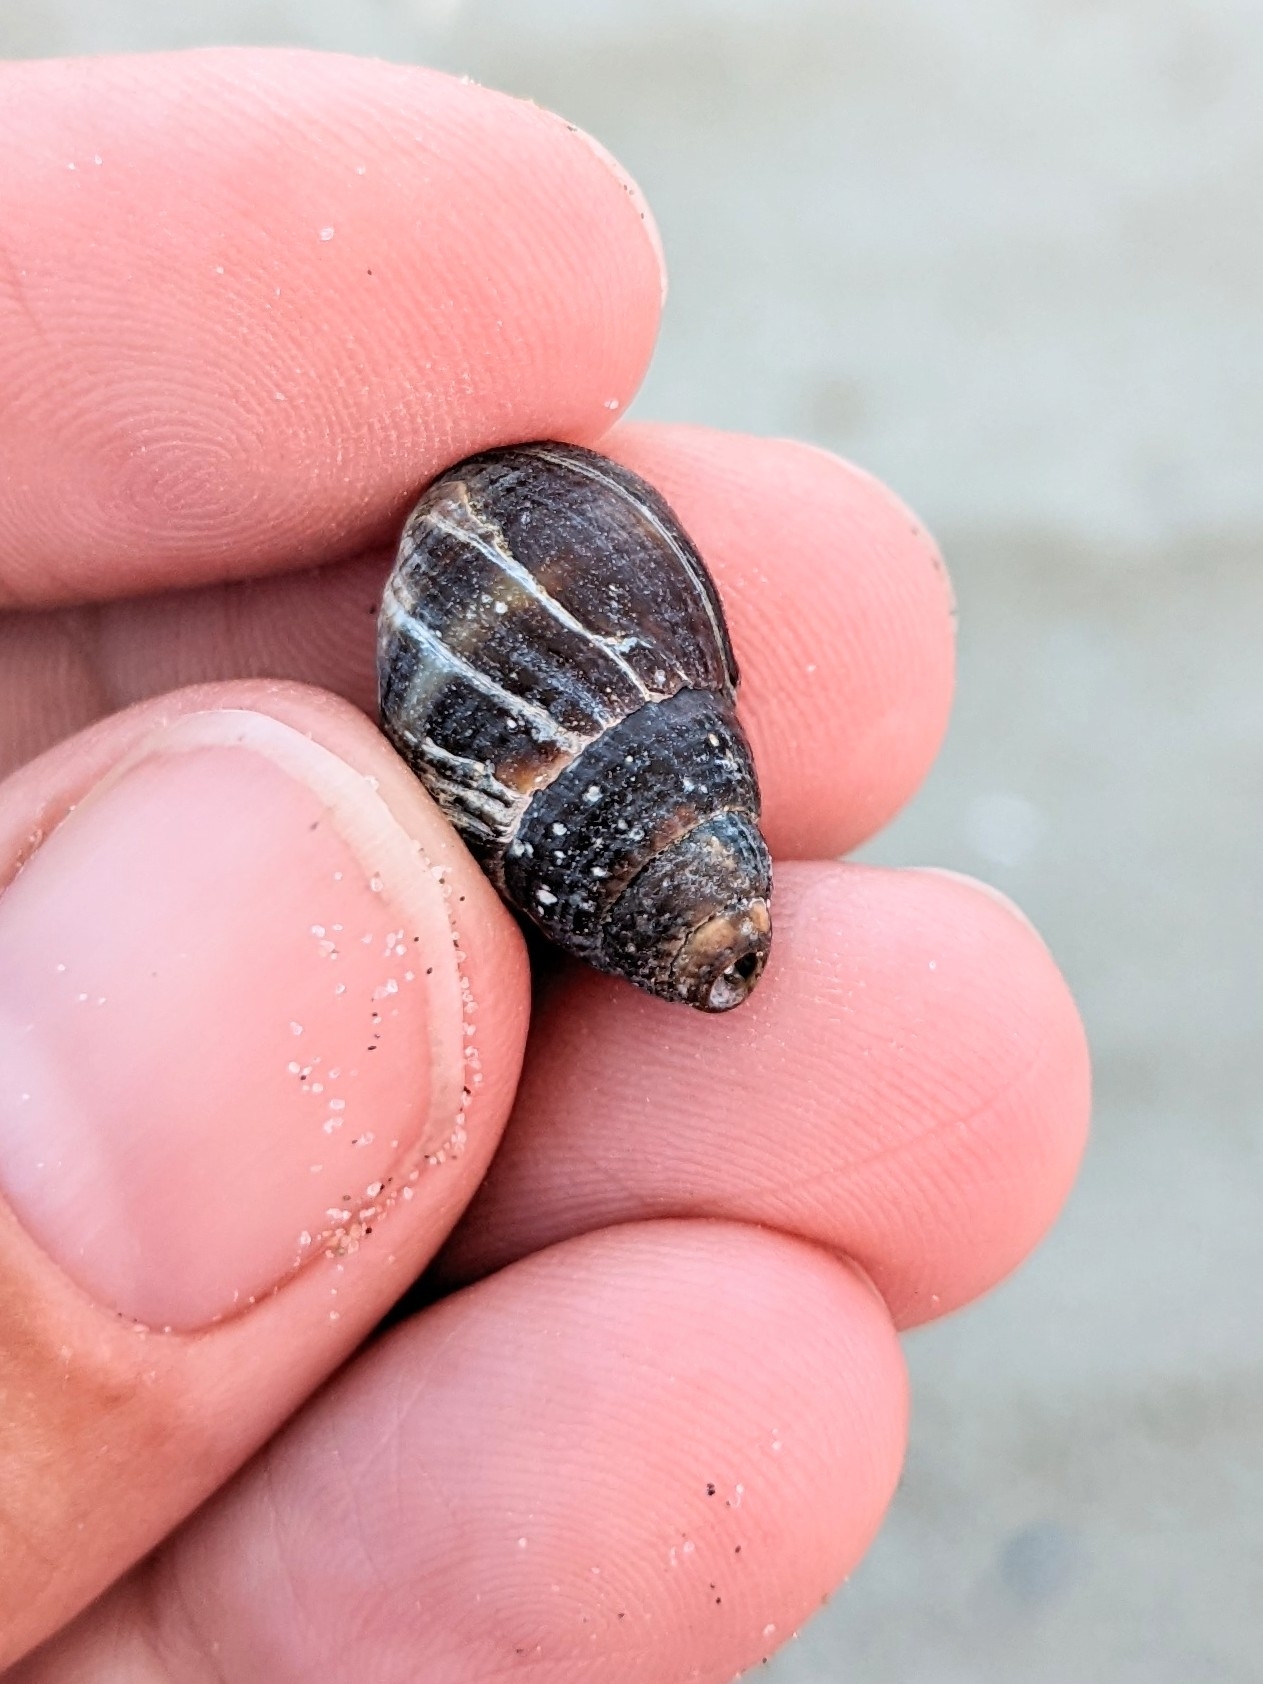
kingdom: Animalia
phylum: Mollusca
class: Gastropoda
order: Neogastropoda
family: Nassariidae
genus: Ilyanassa
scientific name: Ilyanassa obsoleta
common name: Eastern mudsnail
